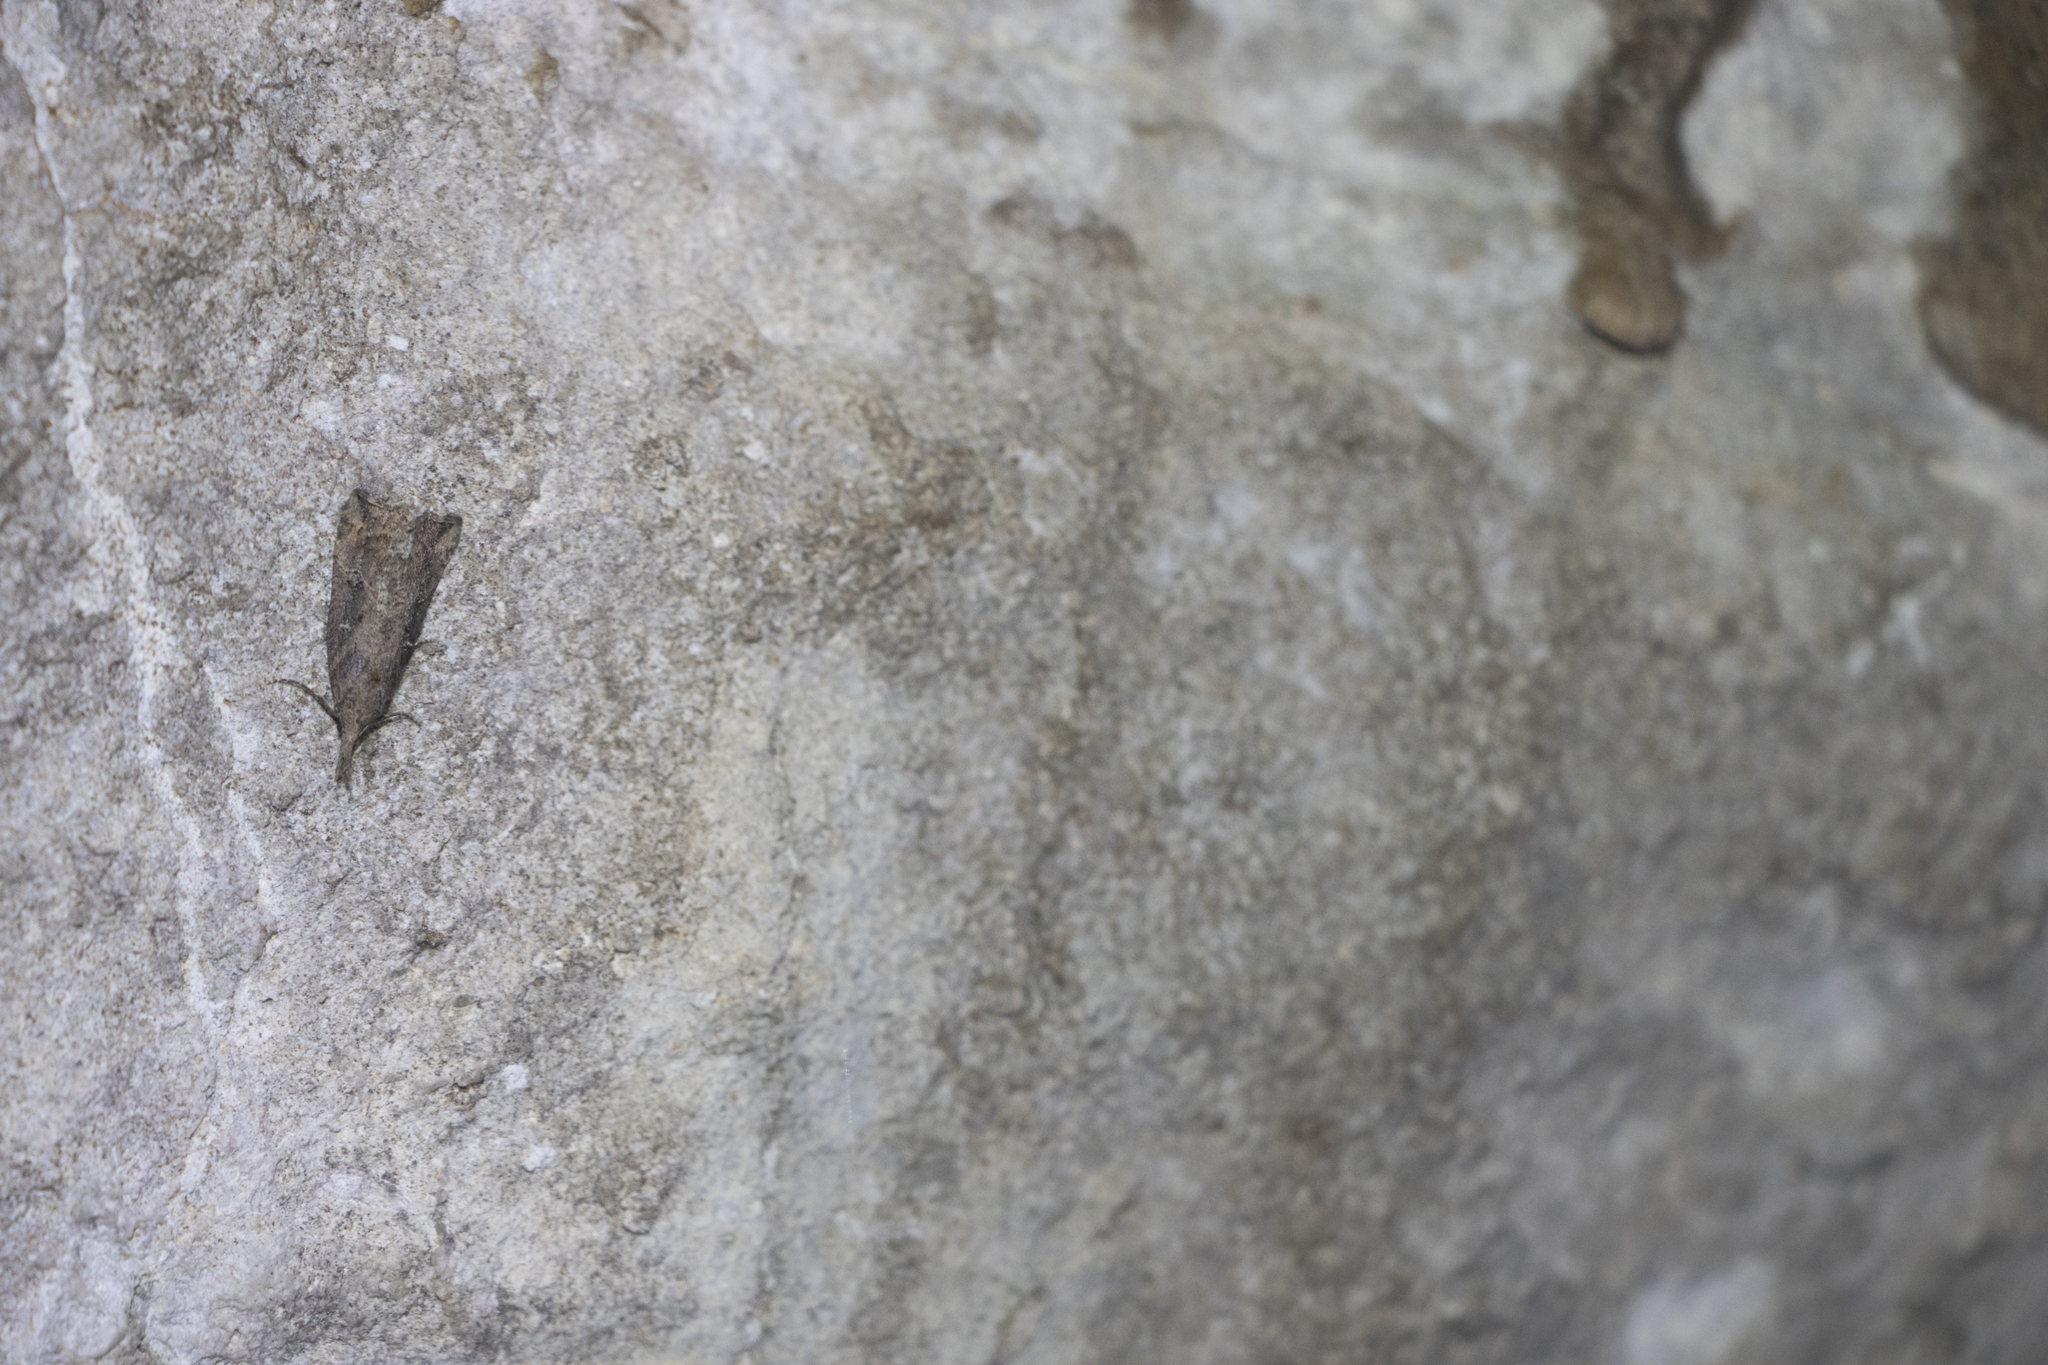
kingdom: Animalia
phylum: Arthropoda
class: Insecta
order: Lepidoptera
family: Erebidae
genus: Hypena
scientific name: Hypena rostralis
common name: Buttoned snout
